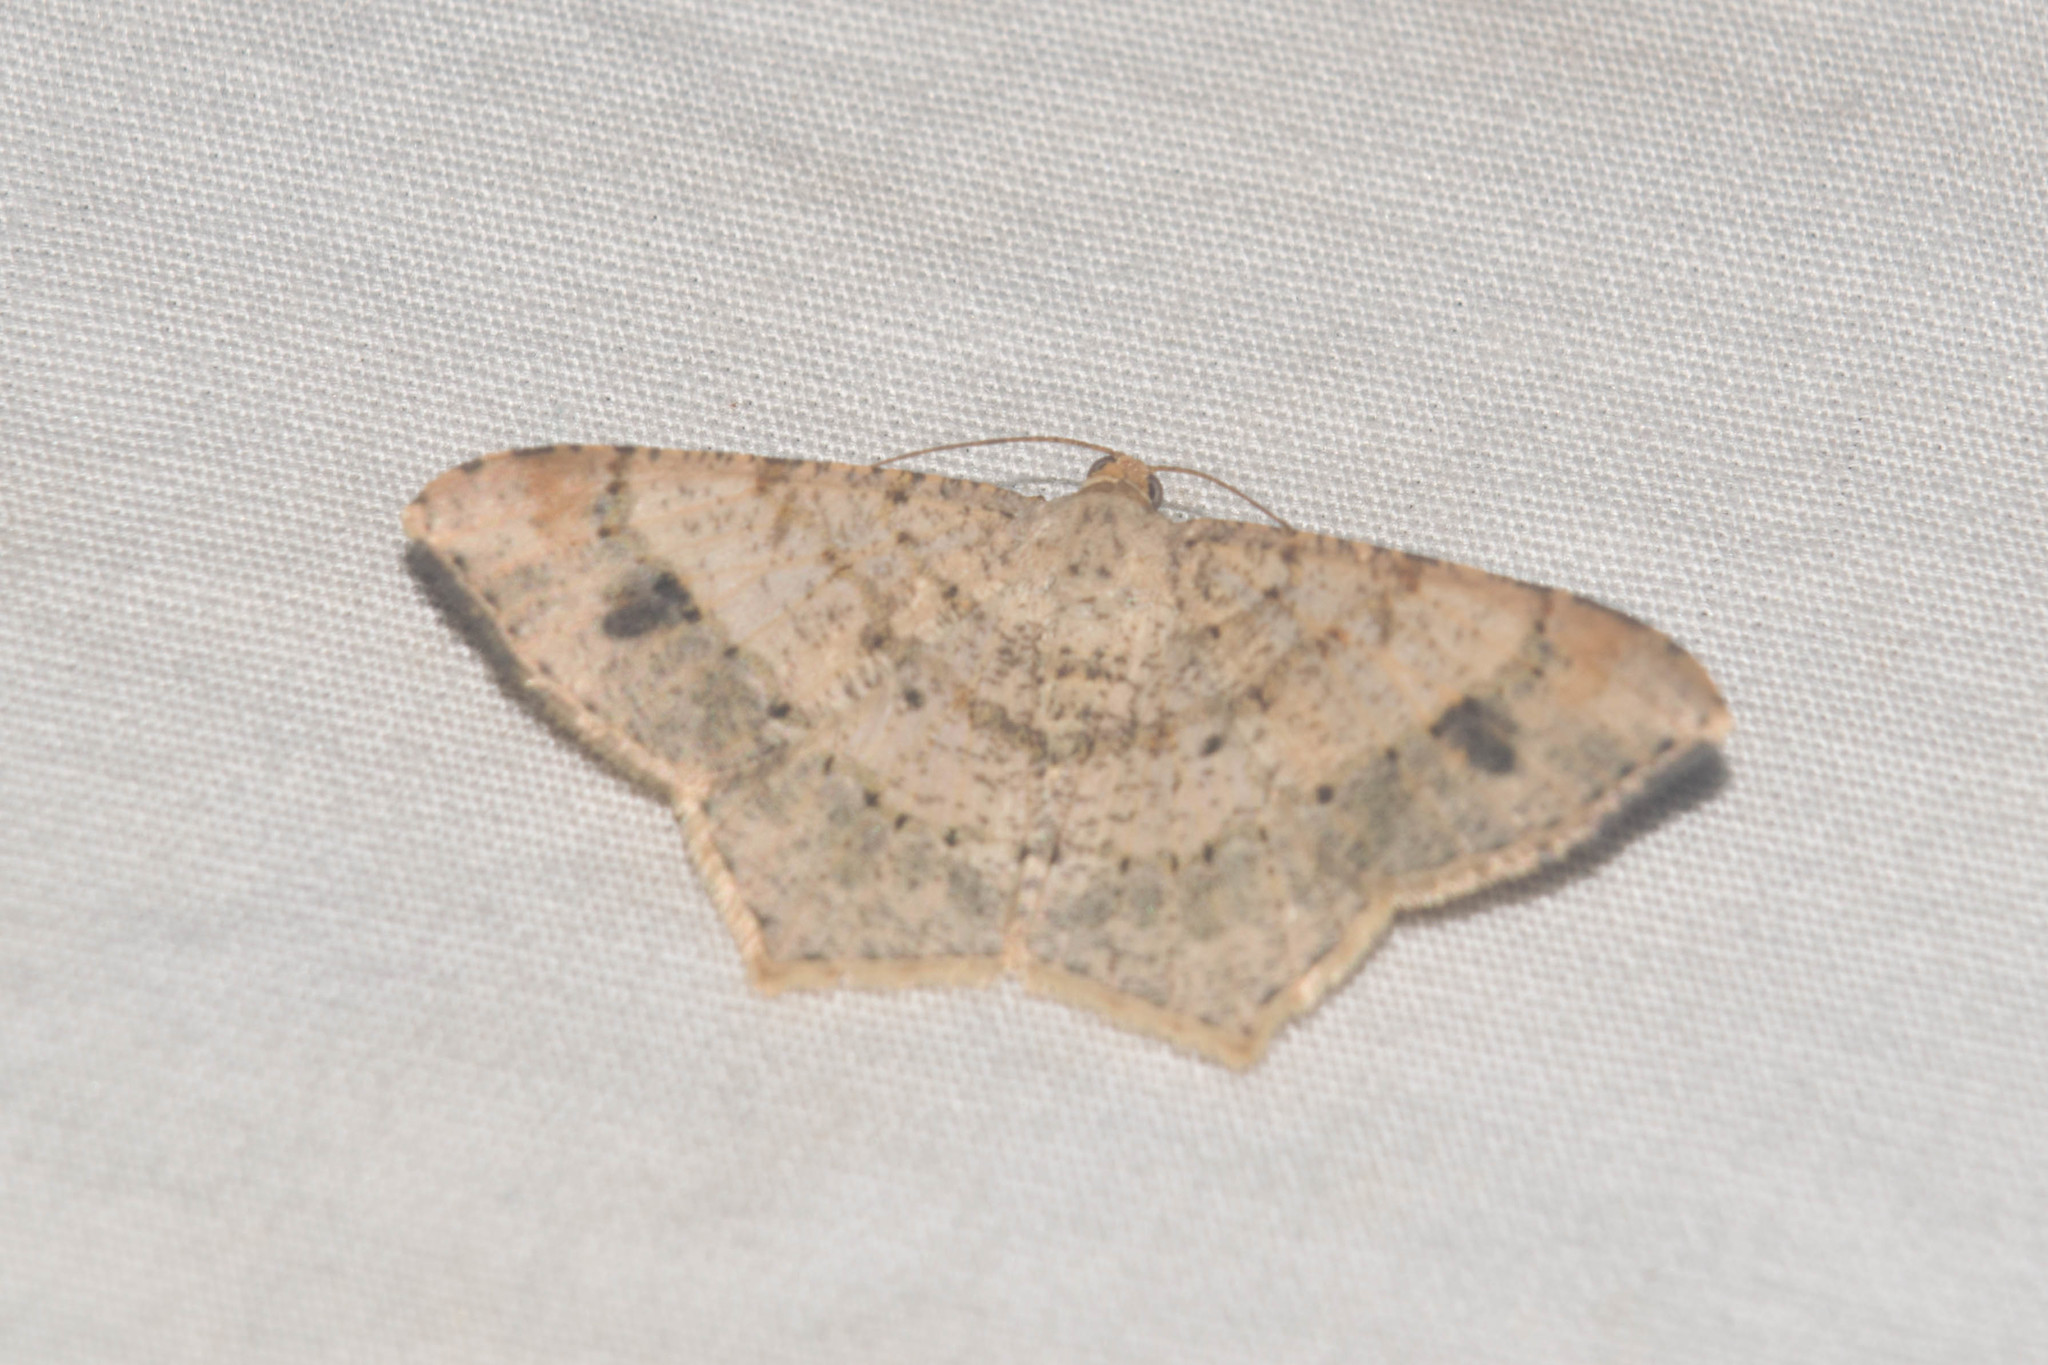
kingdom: Animalia
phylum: Arthropoda
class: Insecta
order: Lepidoptera
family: Geometridae
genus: Macaria
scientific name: Macaria abydata
